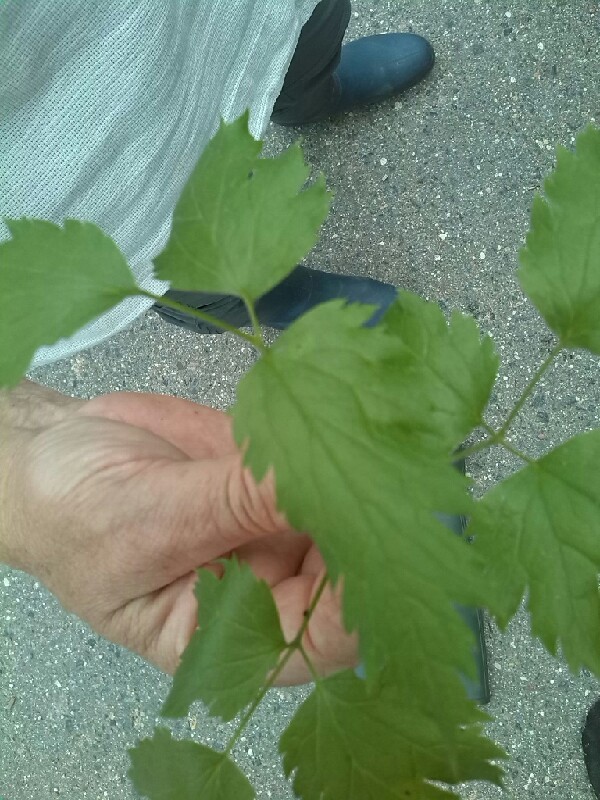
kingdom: Plantae
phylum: Tracheophyta
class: Magnoliopsida
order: Ranunculales
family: Ranunculaceae
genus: Actaea
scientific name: Actaea spicata
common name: Baneberry
